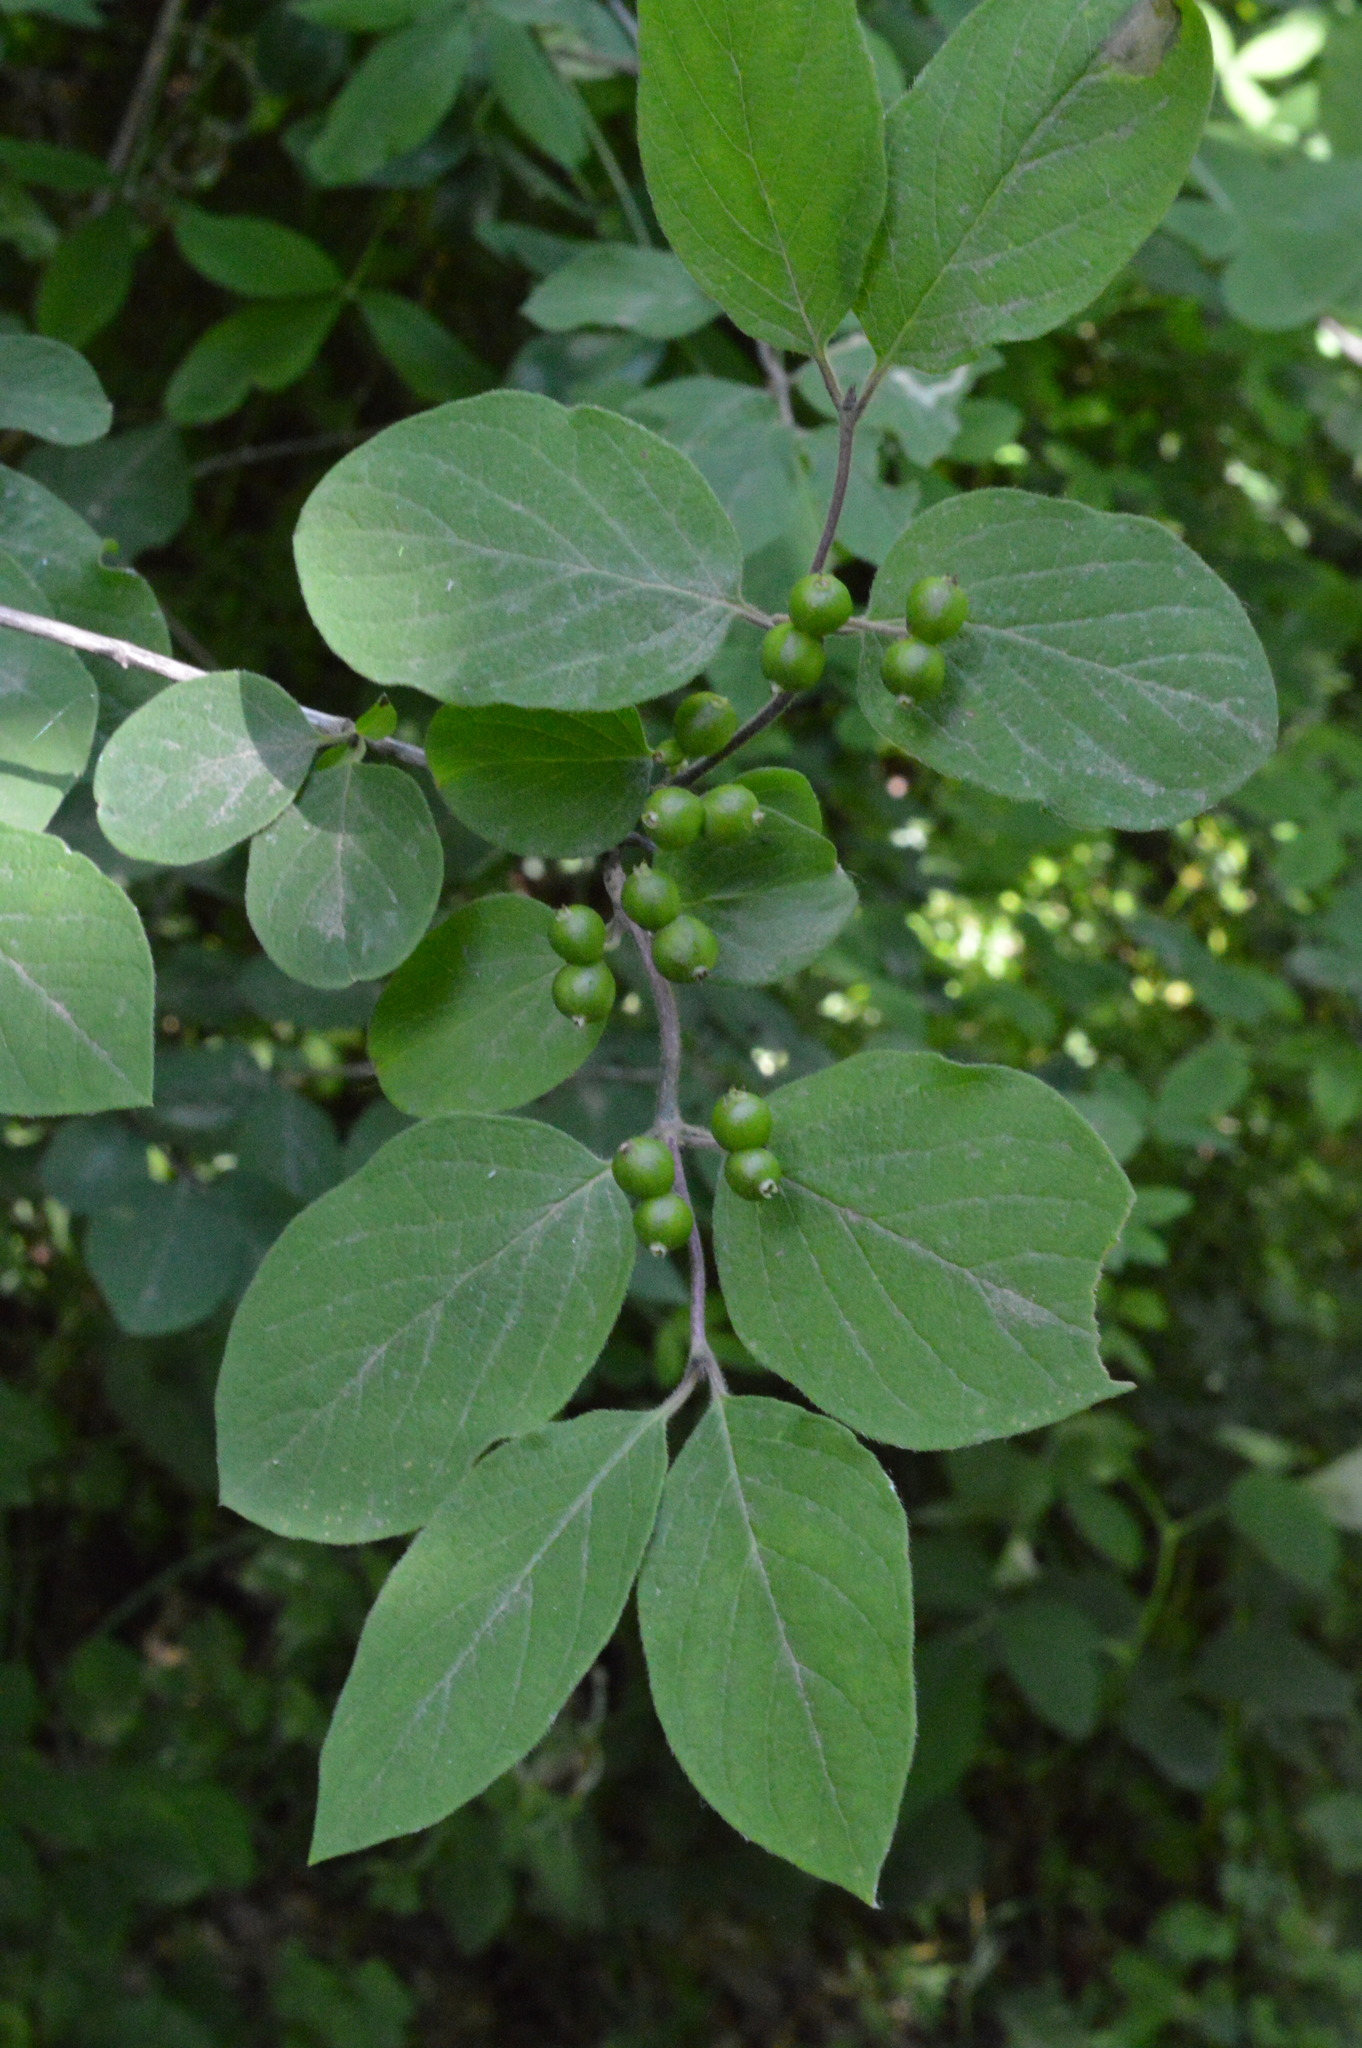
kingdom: Plantae
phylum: Tracheophyta
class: Magnoliopsida
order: Dipsacales
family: Caprifoliaceae
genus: Lonicera
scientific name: Lonicera xylosteum
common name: Fly honeysuckle
